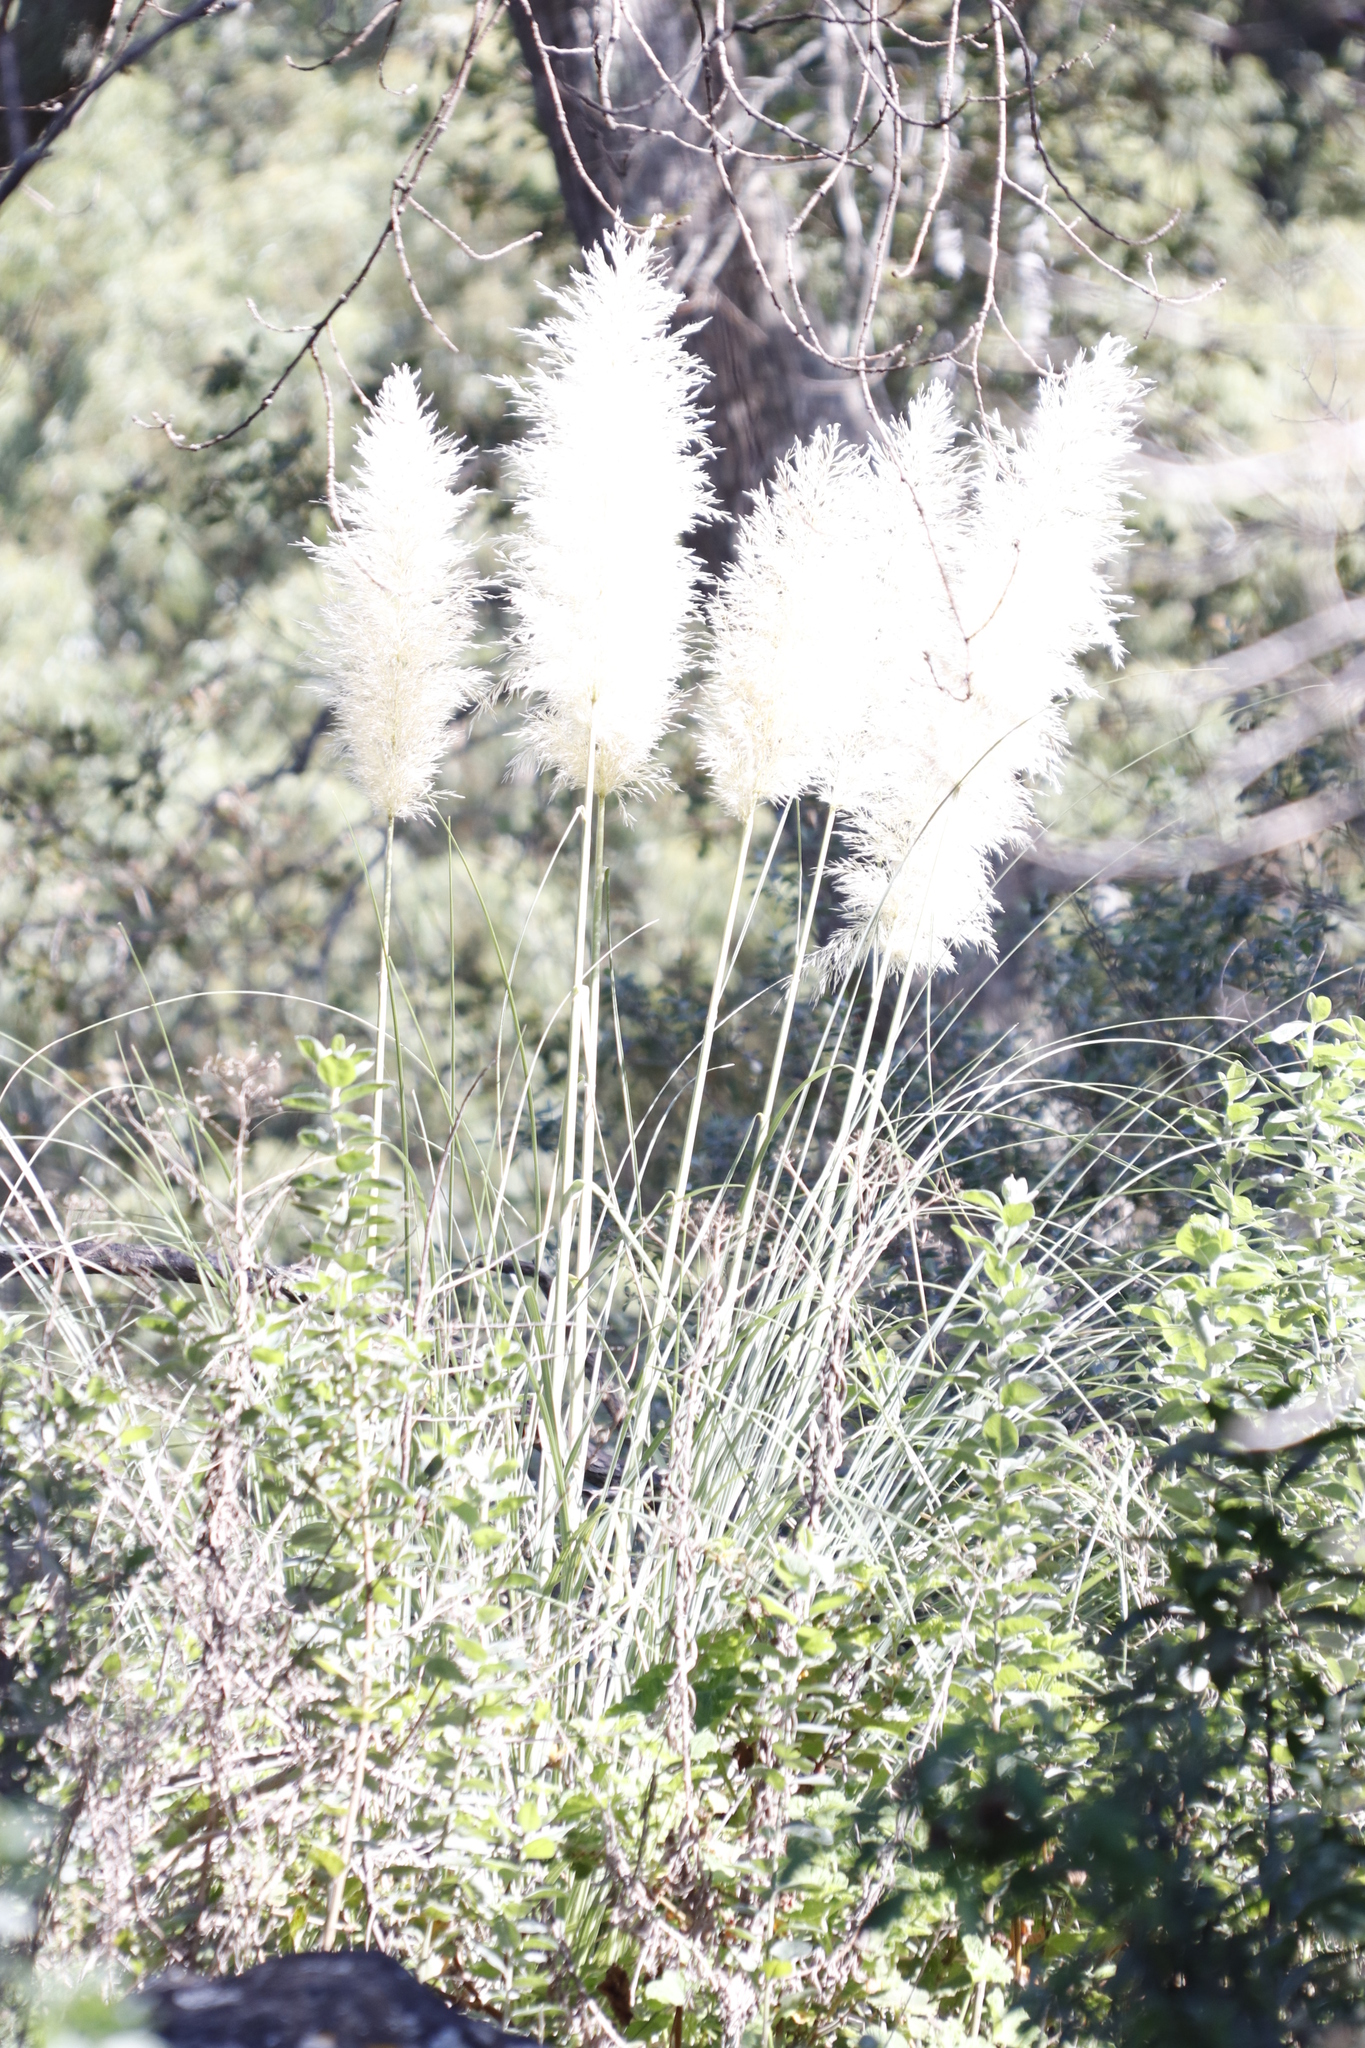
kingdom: Plantae
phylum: Tracheophyta
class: Liliopsida
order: Poales
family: Poaceae
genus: Cortaderia
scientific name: Cortaderia selloana
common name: Uruguayan pampas grass
